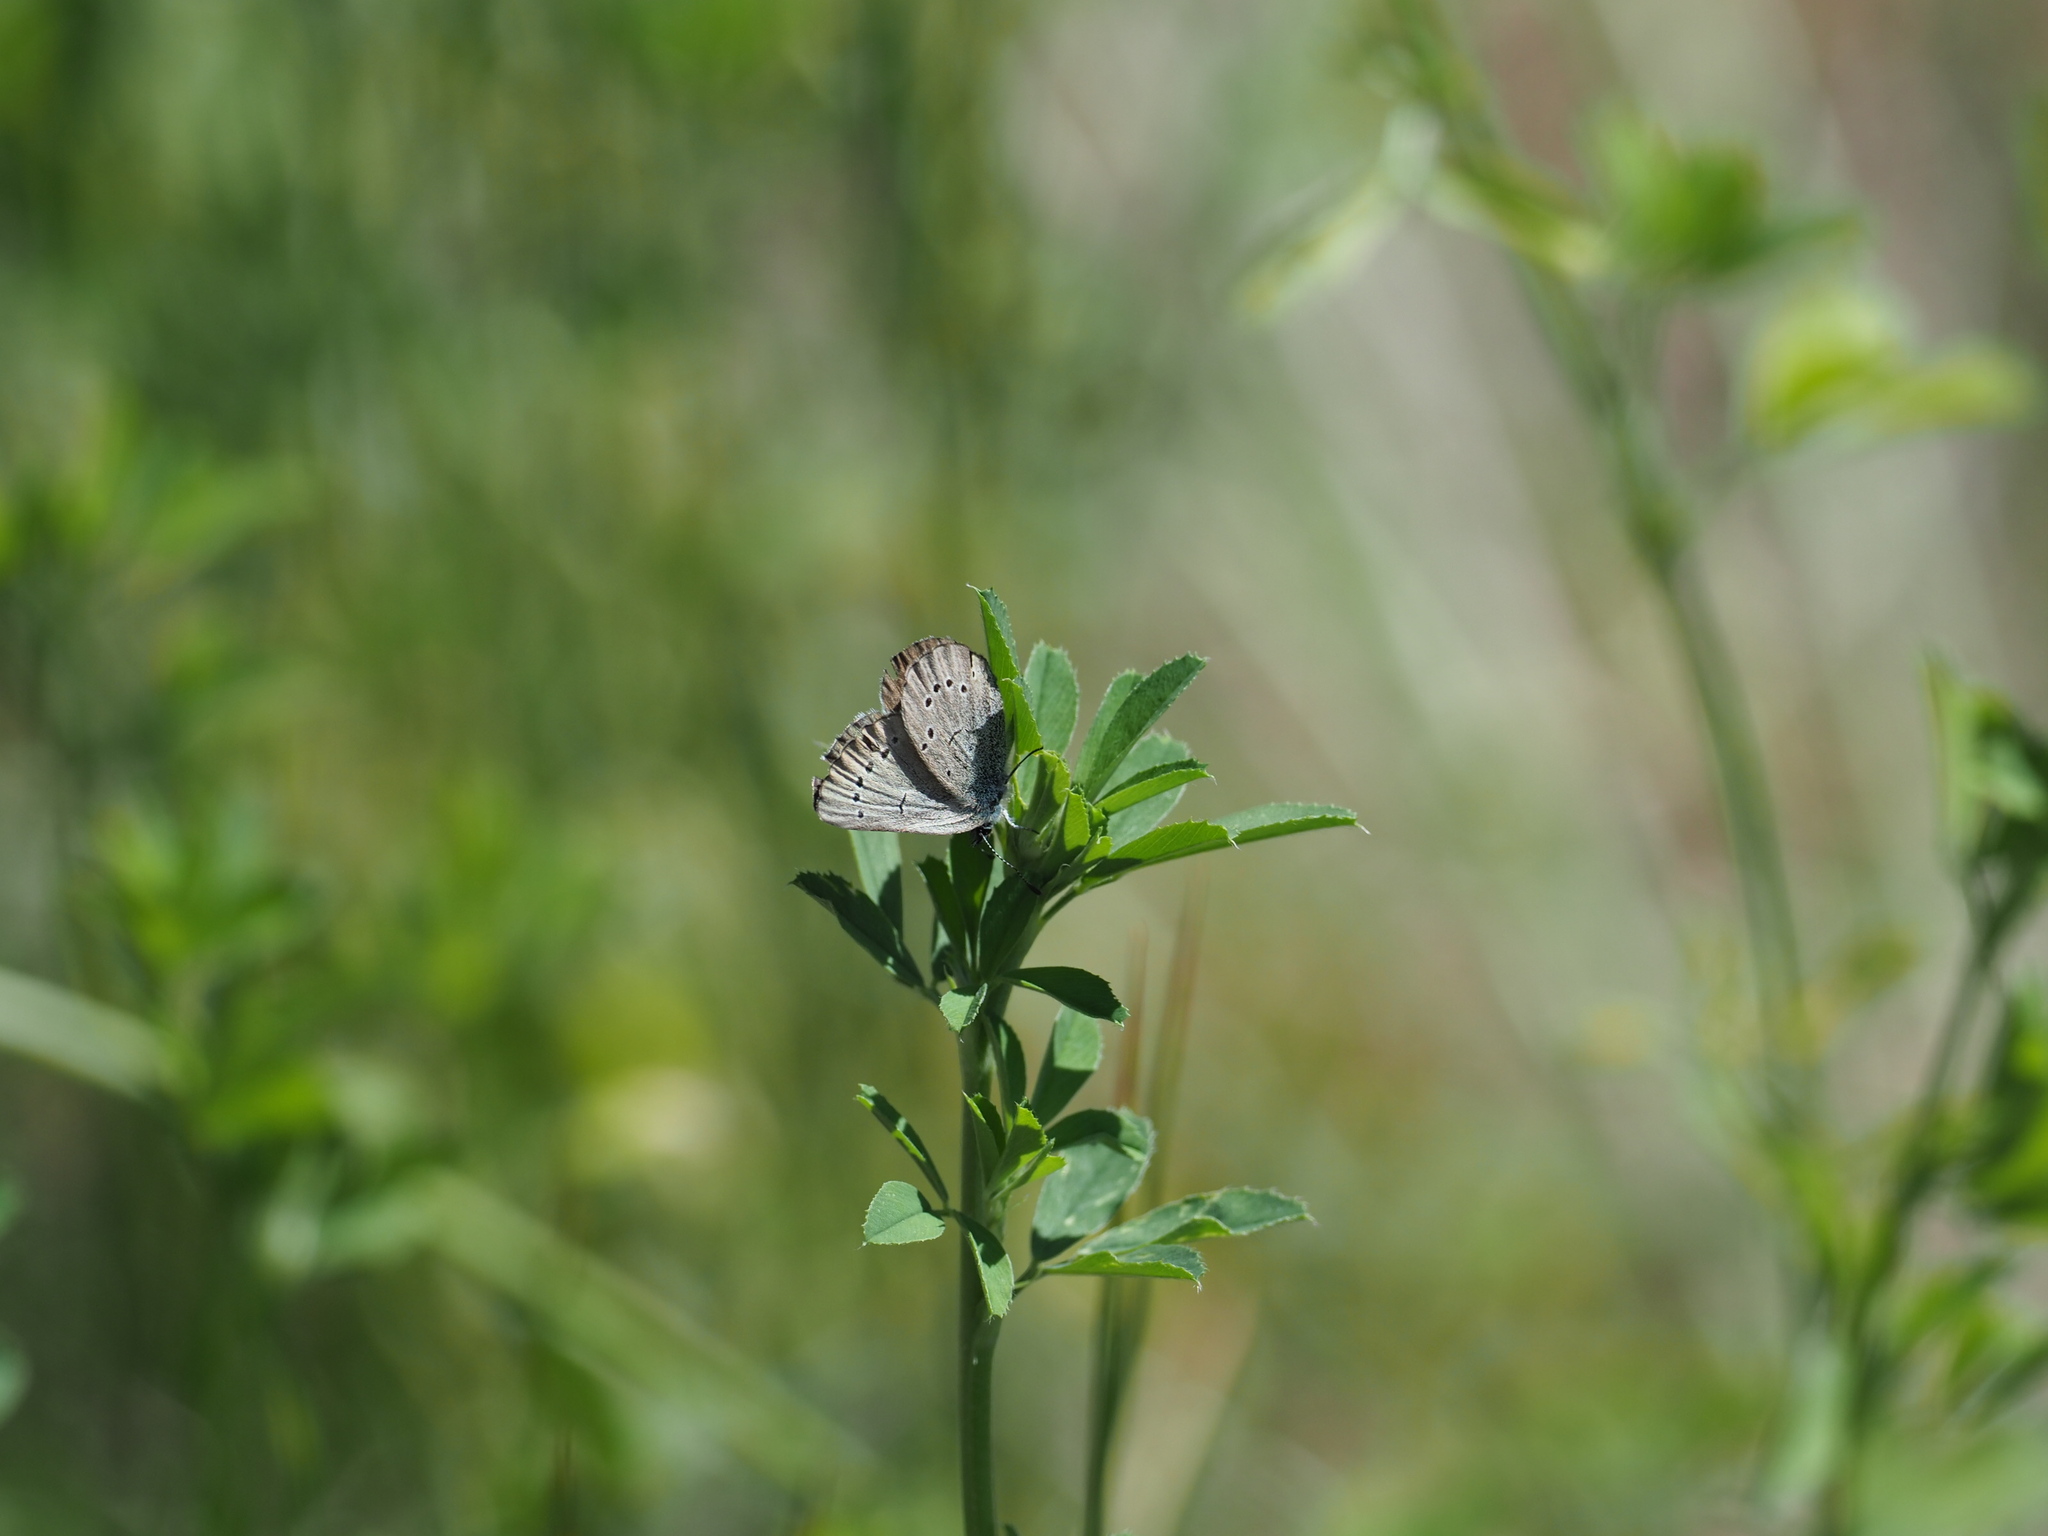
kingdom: Animalia
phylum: Arthropoda
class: Insecta
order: Lepidoptera
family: Lycaenidae
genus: Glaucopsyche
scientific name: Glaucopsyche lygdamus
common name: Silvery blue
